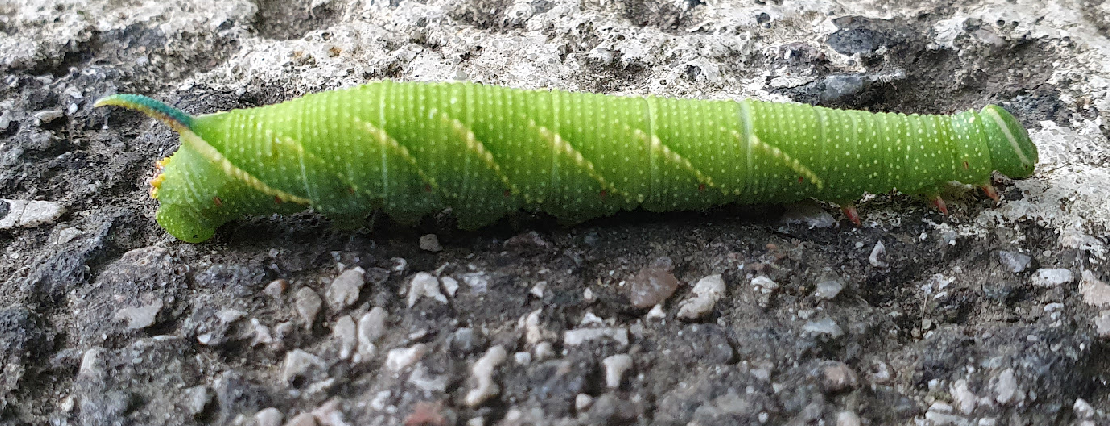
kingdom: Animalia
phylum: Arthropoda
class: Insecta
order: Lepidoptera
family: Sphingidae
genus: Mimas
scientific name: Mimas tiliae
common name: Lime hawk-moth
